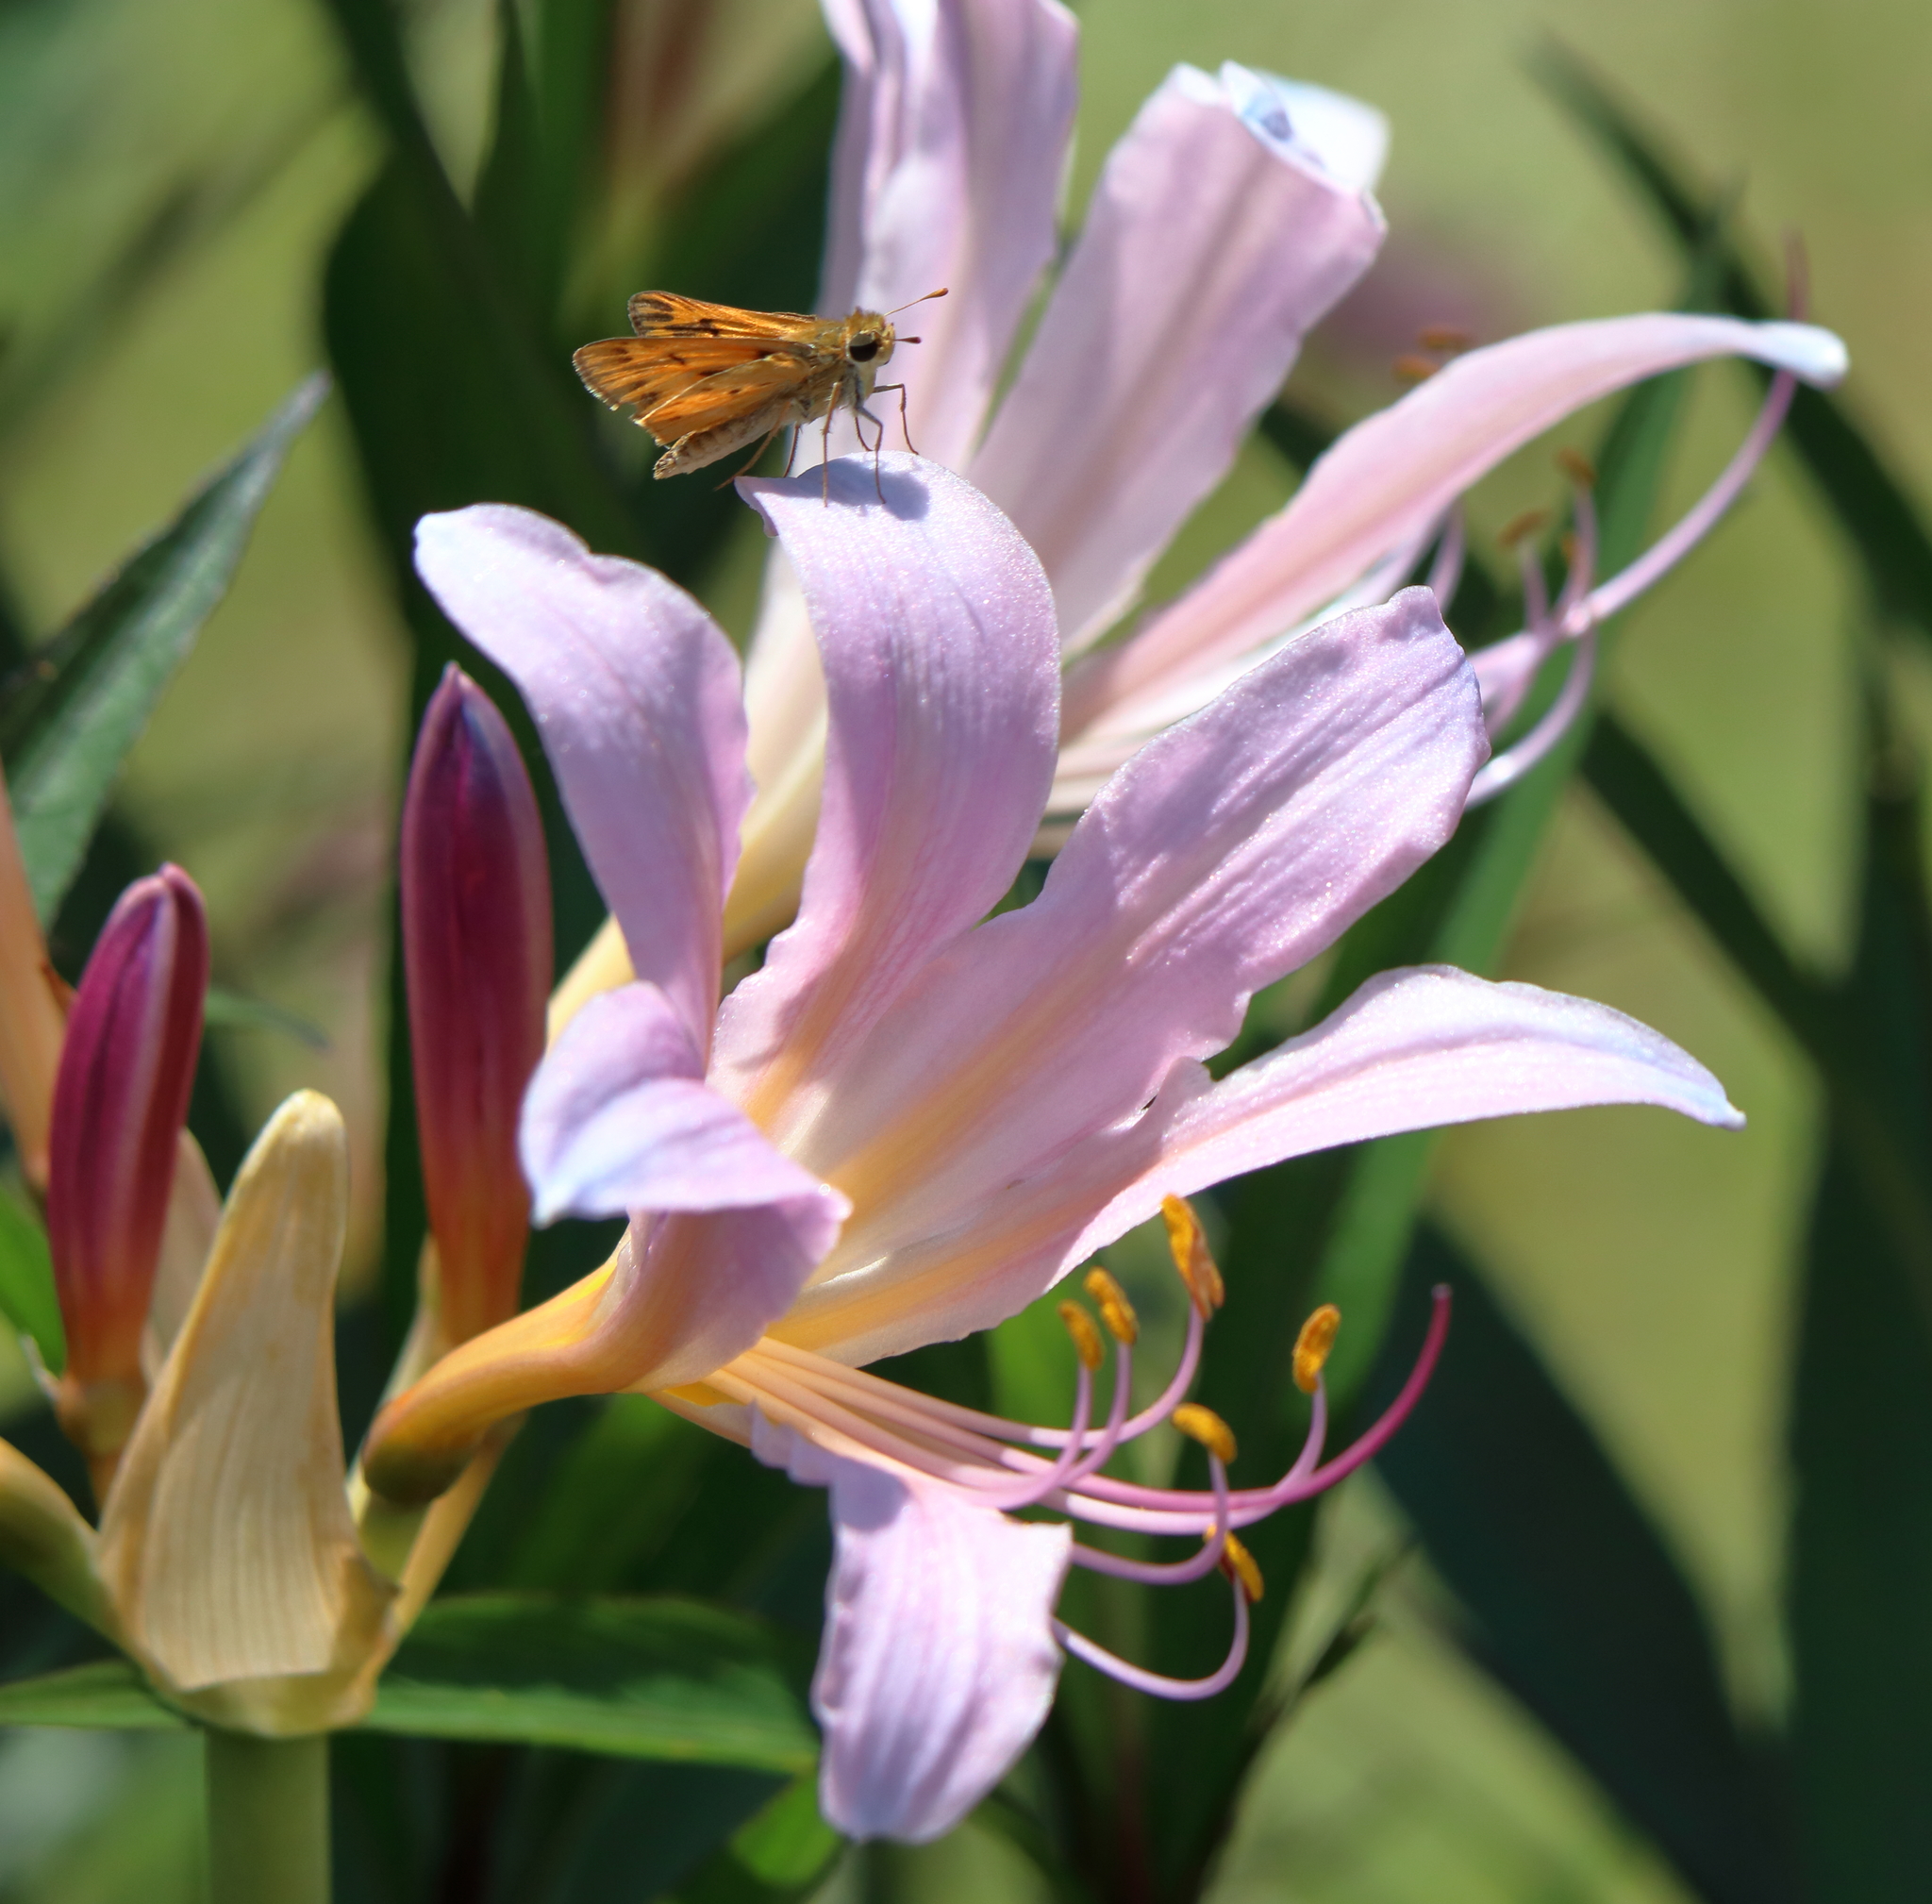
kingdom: Animalia
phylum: Arthropoda
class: Insecta
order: Lepidoptera
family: Hesperiidae
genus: Hylephila
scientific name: Hylephila phyleus
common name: Fiery skipper
